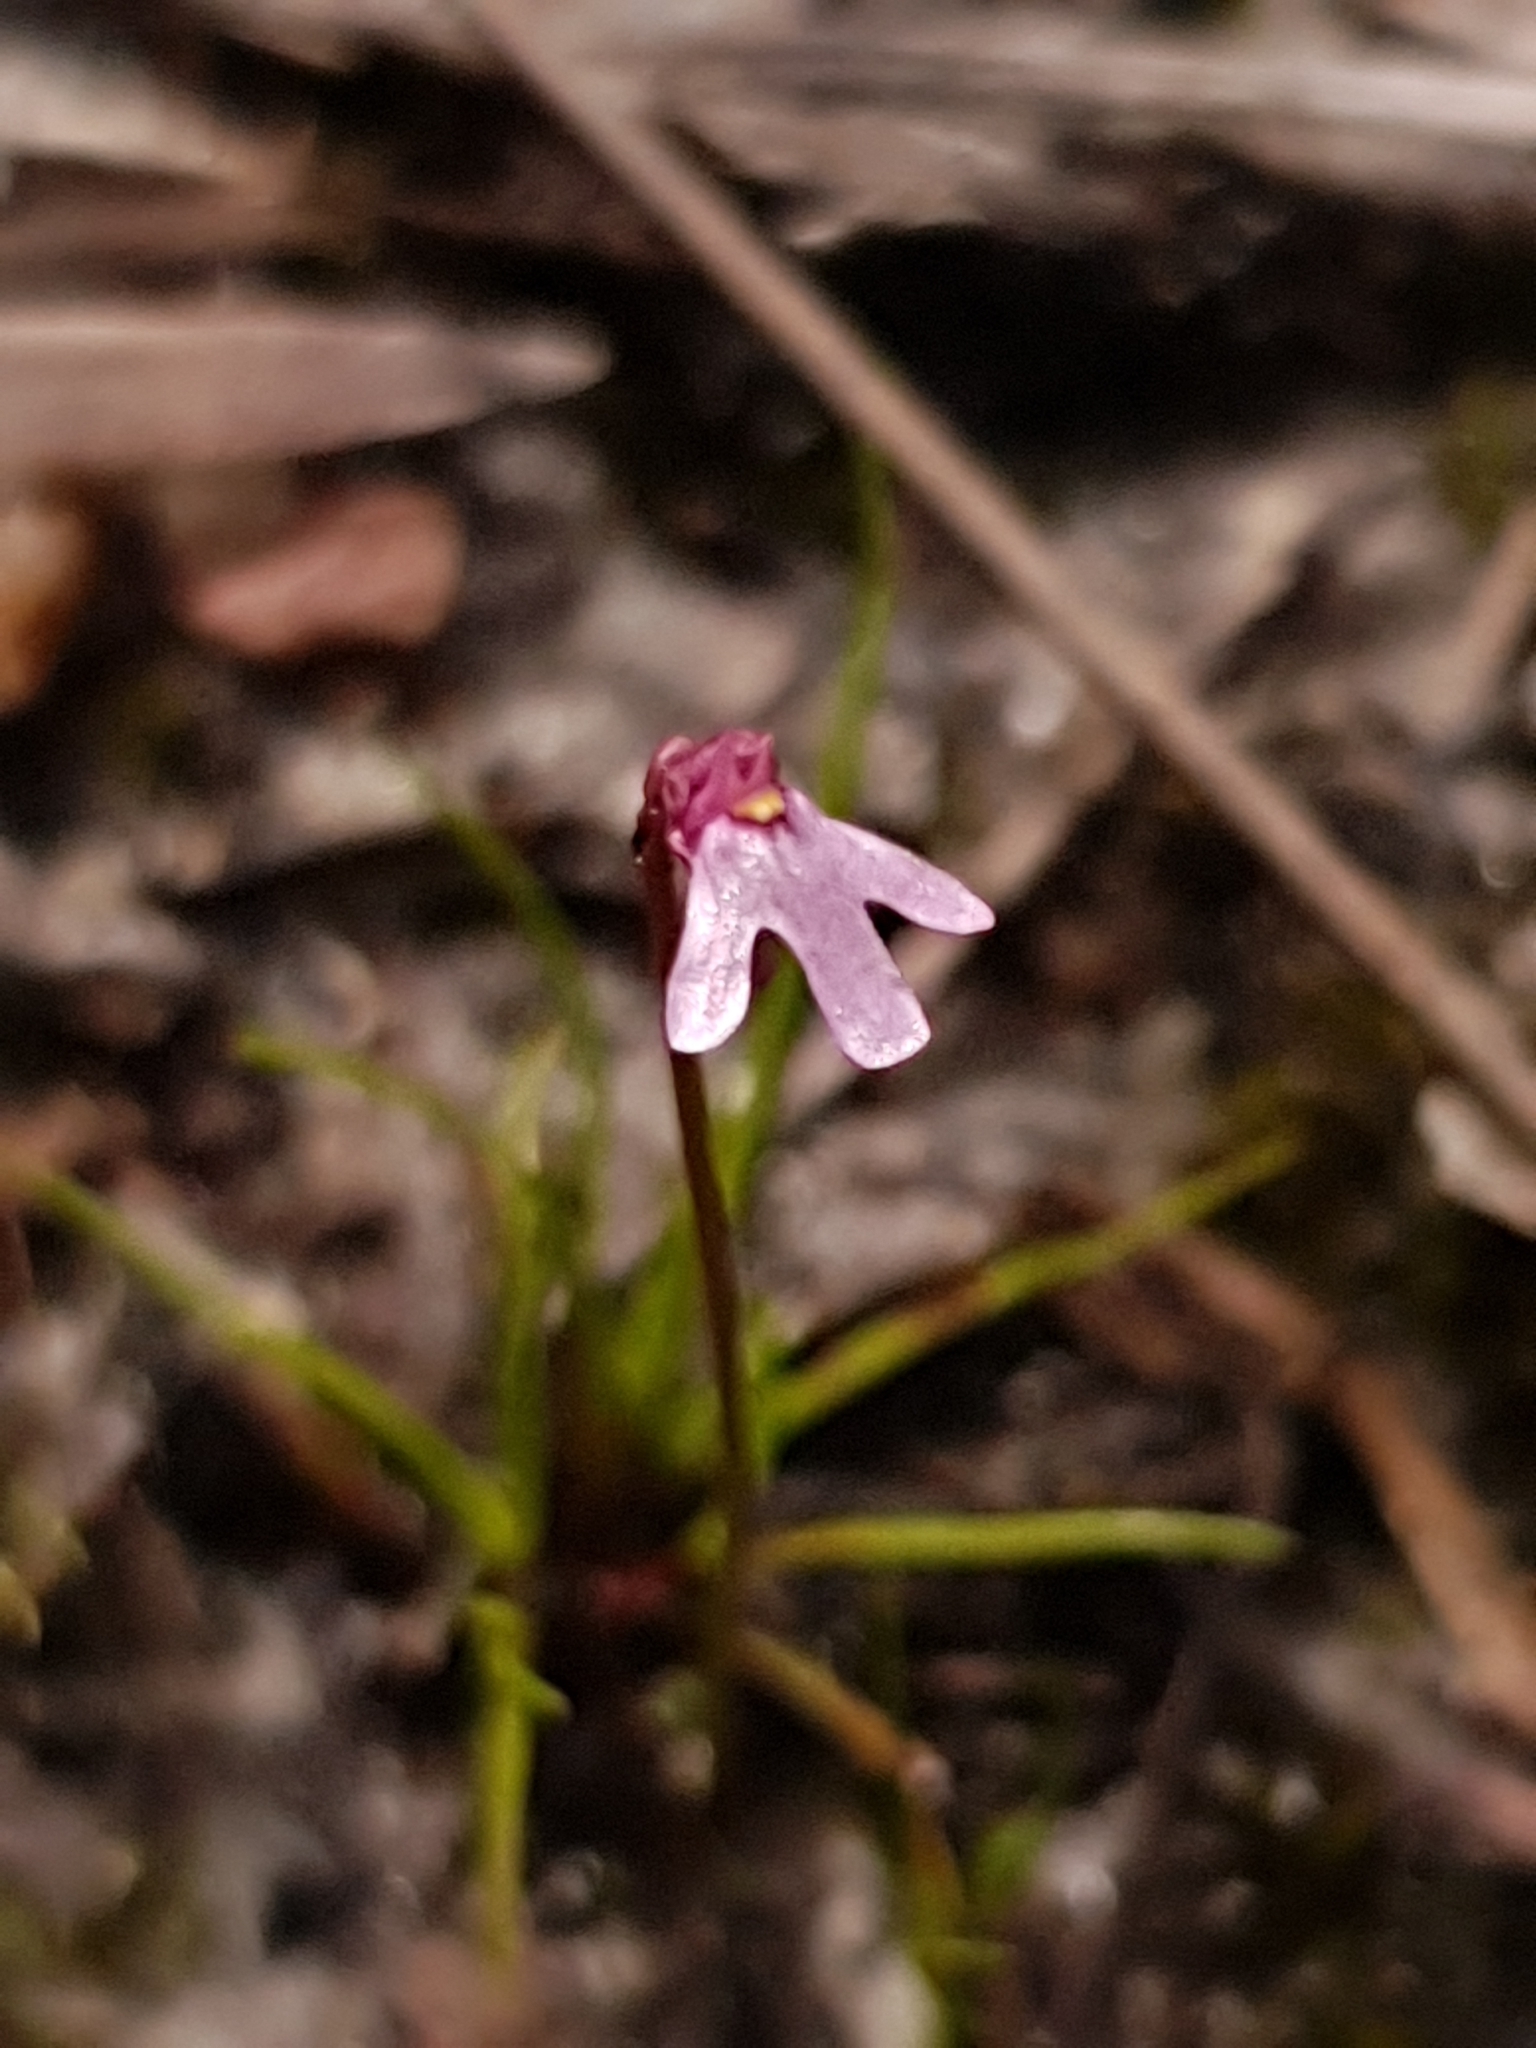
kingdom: Plantae
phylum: Tracheophyta
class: Magnoliopsida
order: Lamiales
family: Lentibulariaceae
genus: Utricularia
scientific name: Utricularia tenella
